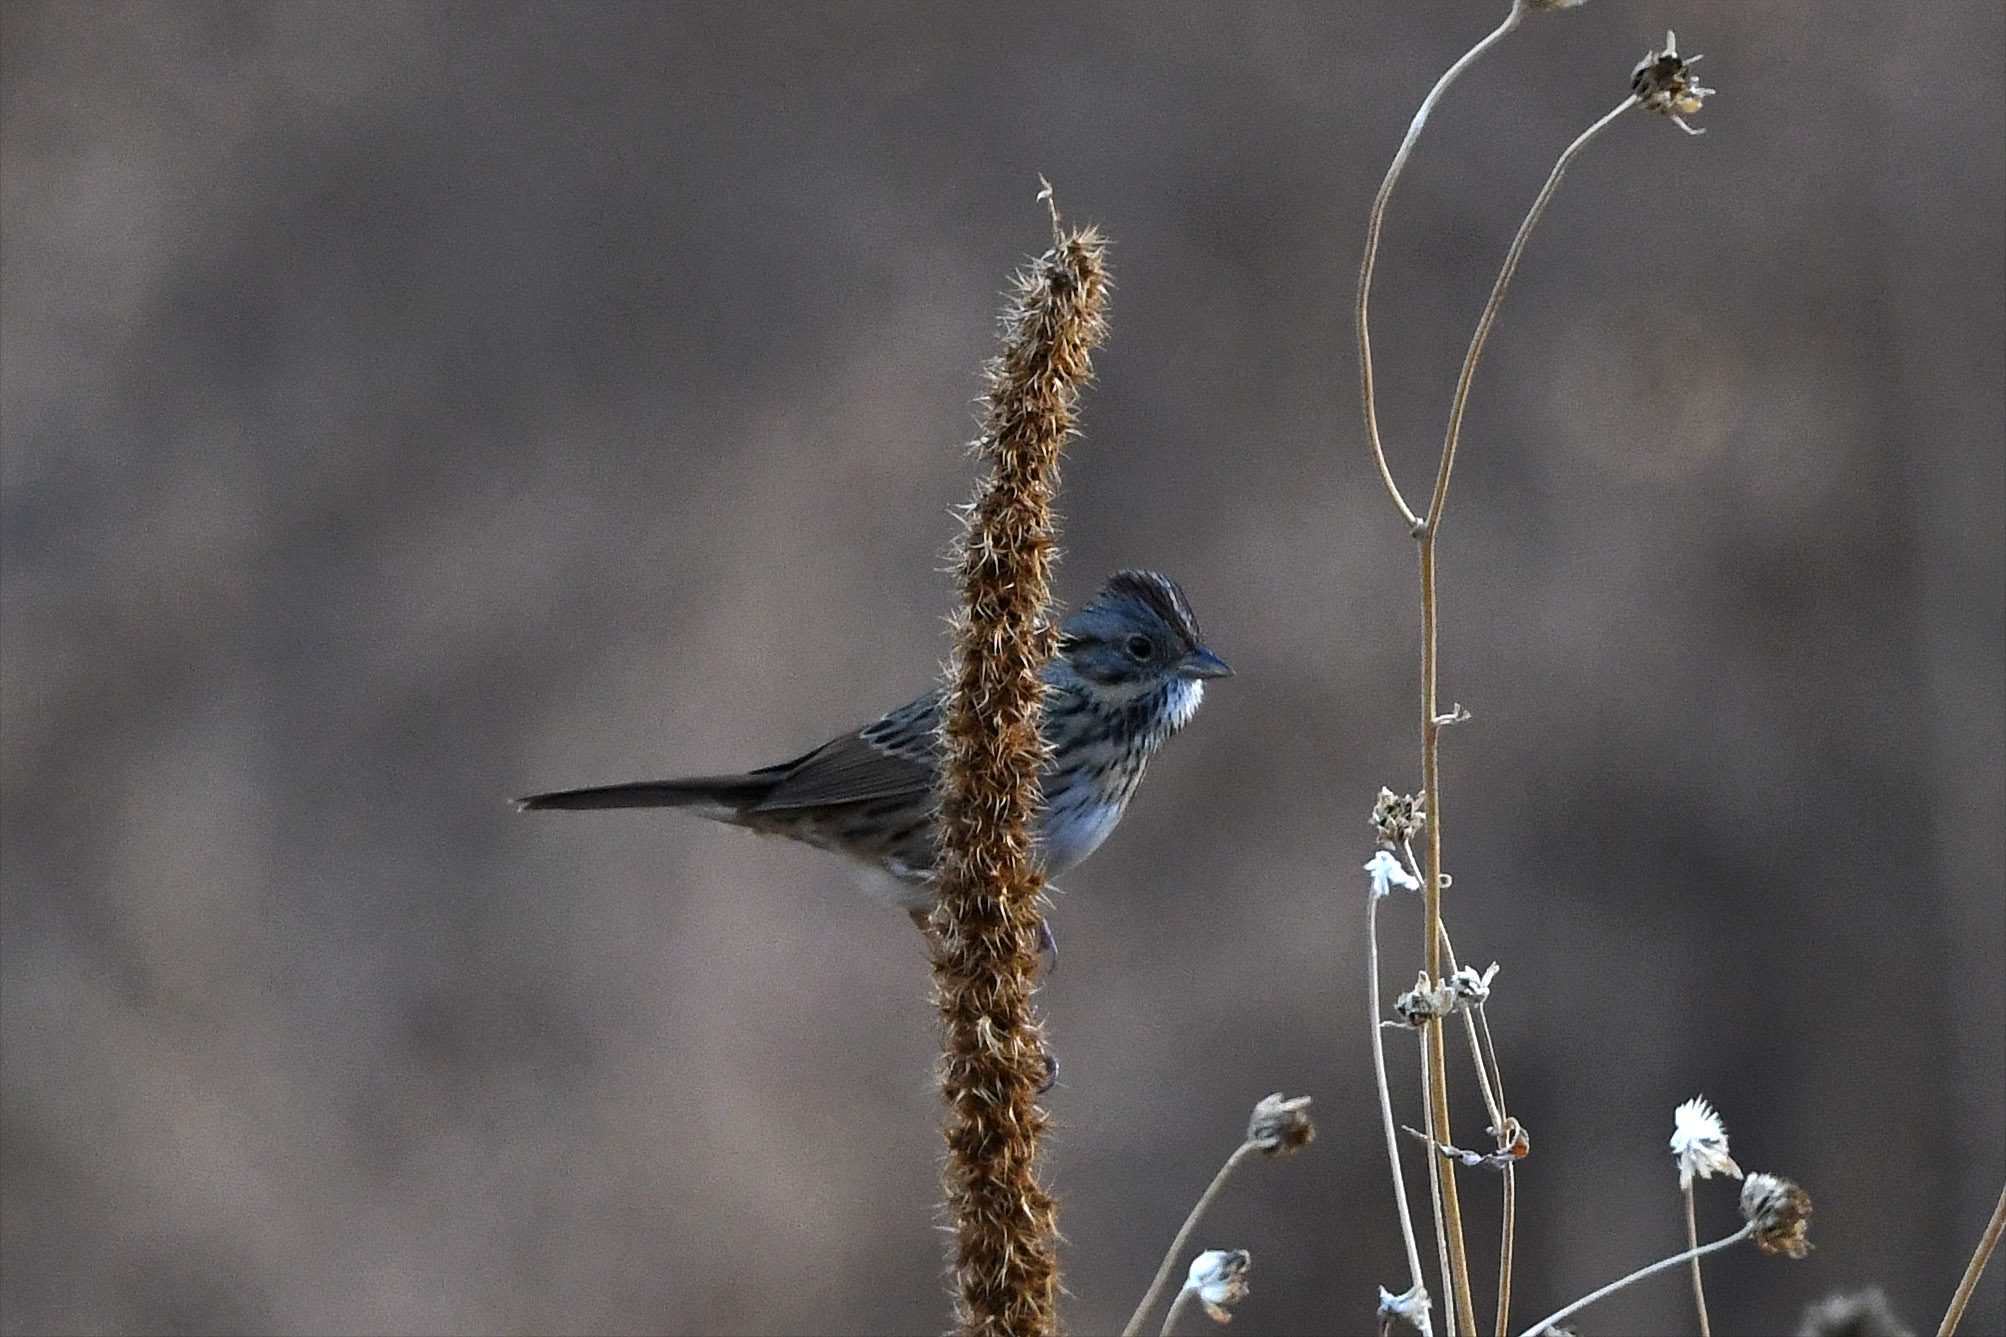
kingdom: Animalia
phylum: Chordata
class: Aves
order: Passeriformes
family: Passerellidae
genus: Melospiza
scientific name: Melospiza lincolnii
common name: Lincoln's sparrow
